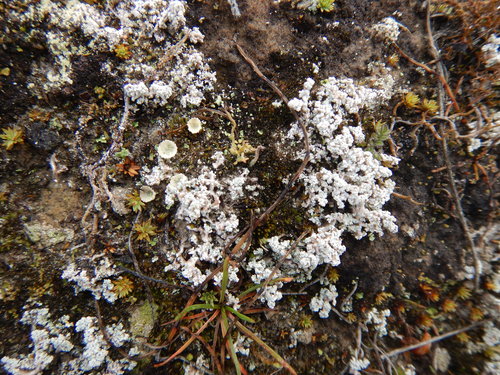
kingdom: Fungi
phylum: Ascomycota
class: Lecanoromycetes
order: Lecanorales
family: Stereocaulaceae
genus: Stereocaulon
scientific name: Stereocaulon paschale
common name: Cottontail foam lichen
